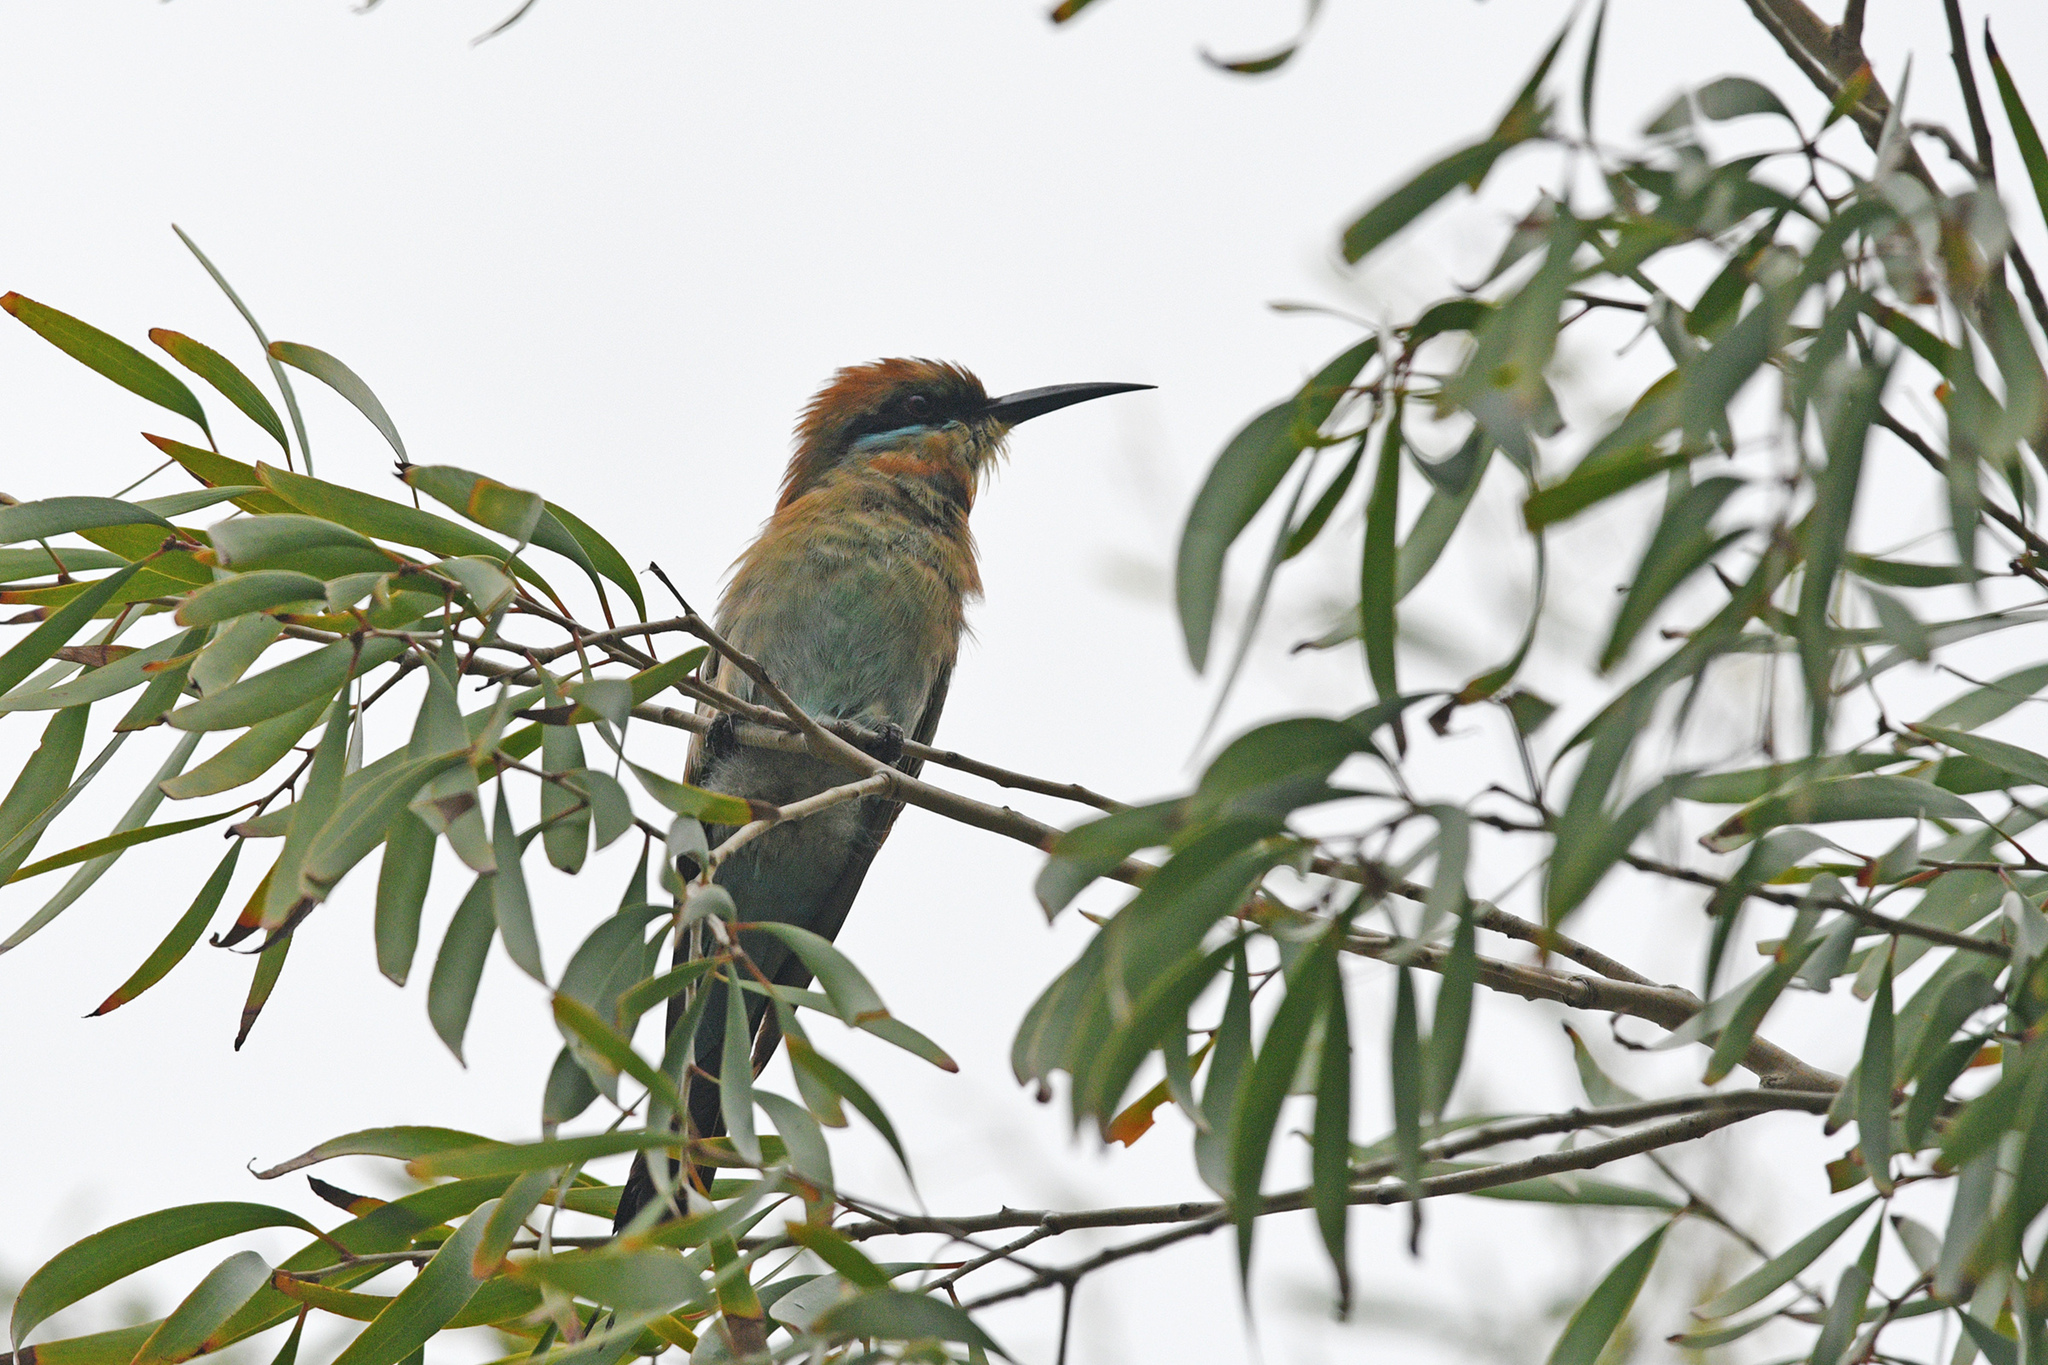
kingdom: Animalia
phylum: Chordata
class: Aves
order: Coraciiformes
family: Meropidae
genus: Merops
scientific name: Merops ornatus
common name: Rainbow bee-eater
